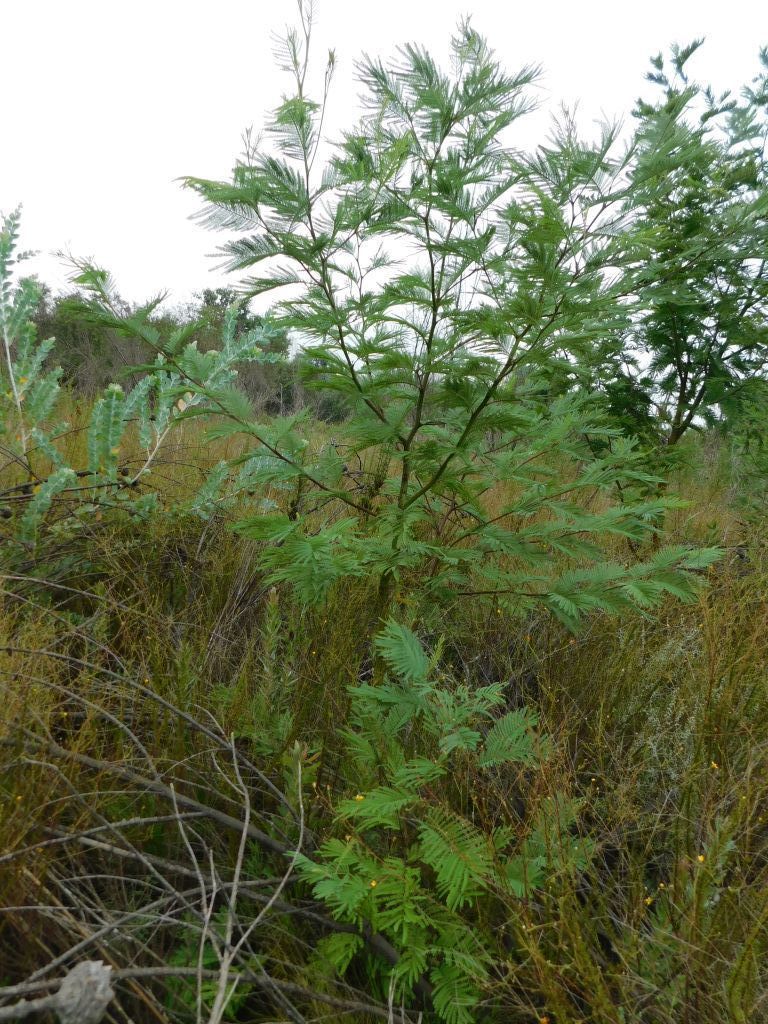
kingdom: Plantae
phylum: Tracheophyta
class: Magnoliopsida
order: Fabales
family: Fabaceae
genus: Acacia
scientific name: Acacia mearnsii
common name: Black wattle
